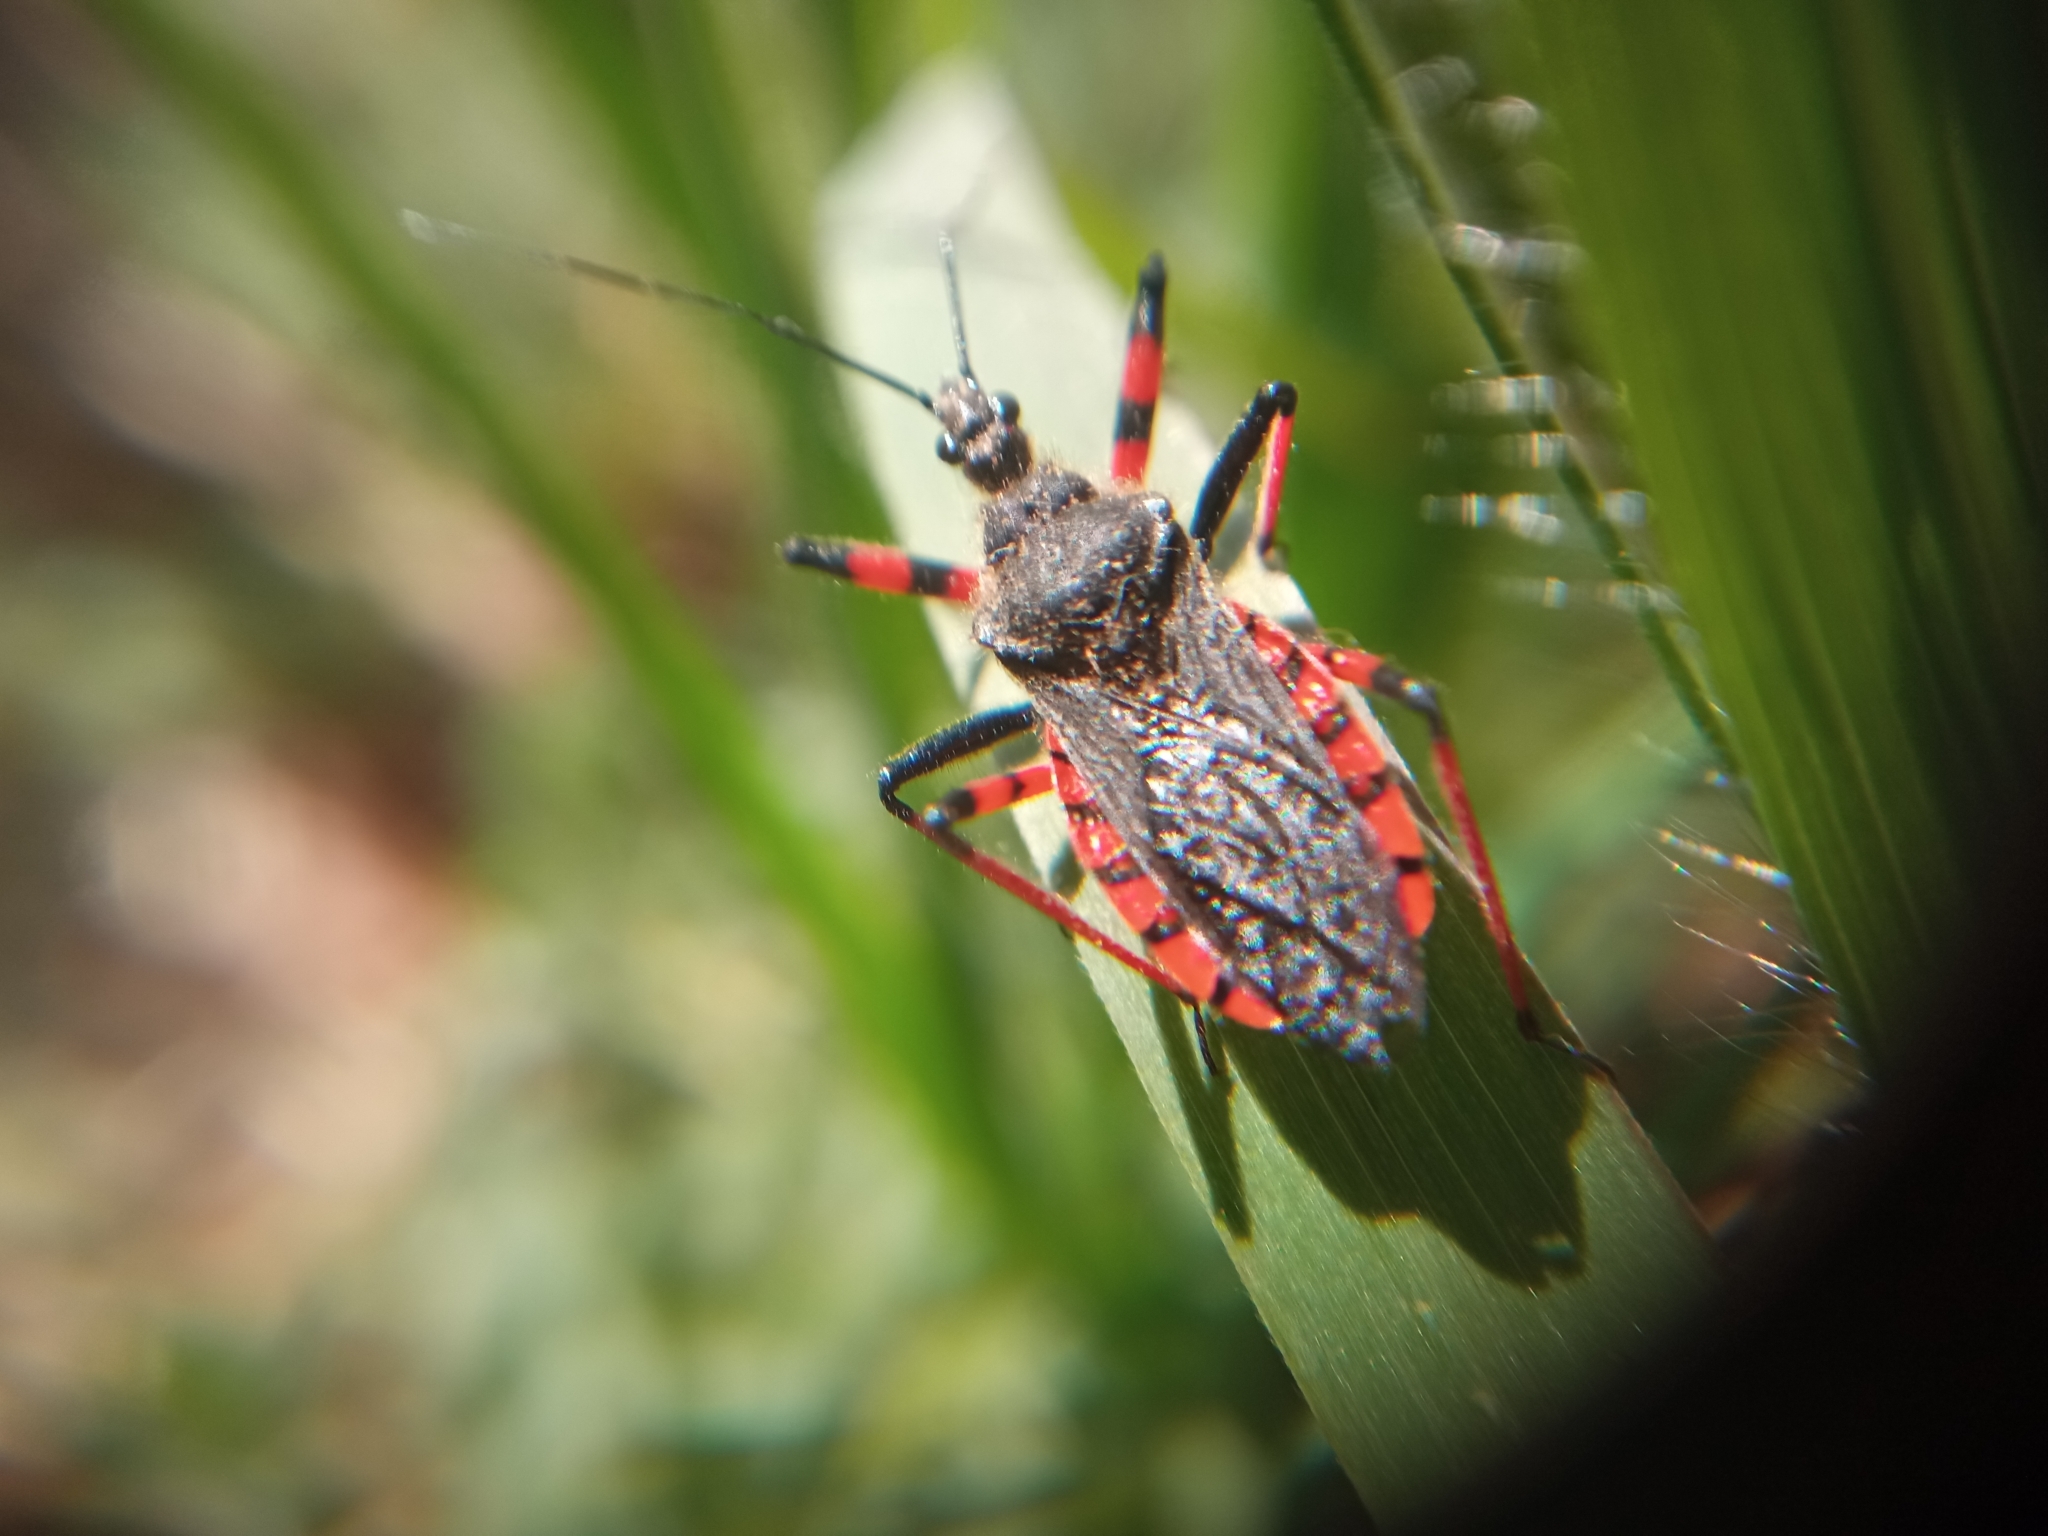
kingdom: Animalia
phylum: Arthropoda
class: Insecta
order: Hemiptera
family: Reduviidae
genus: Rhynocoris
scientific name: Rhynocoris annulatus
